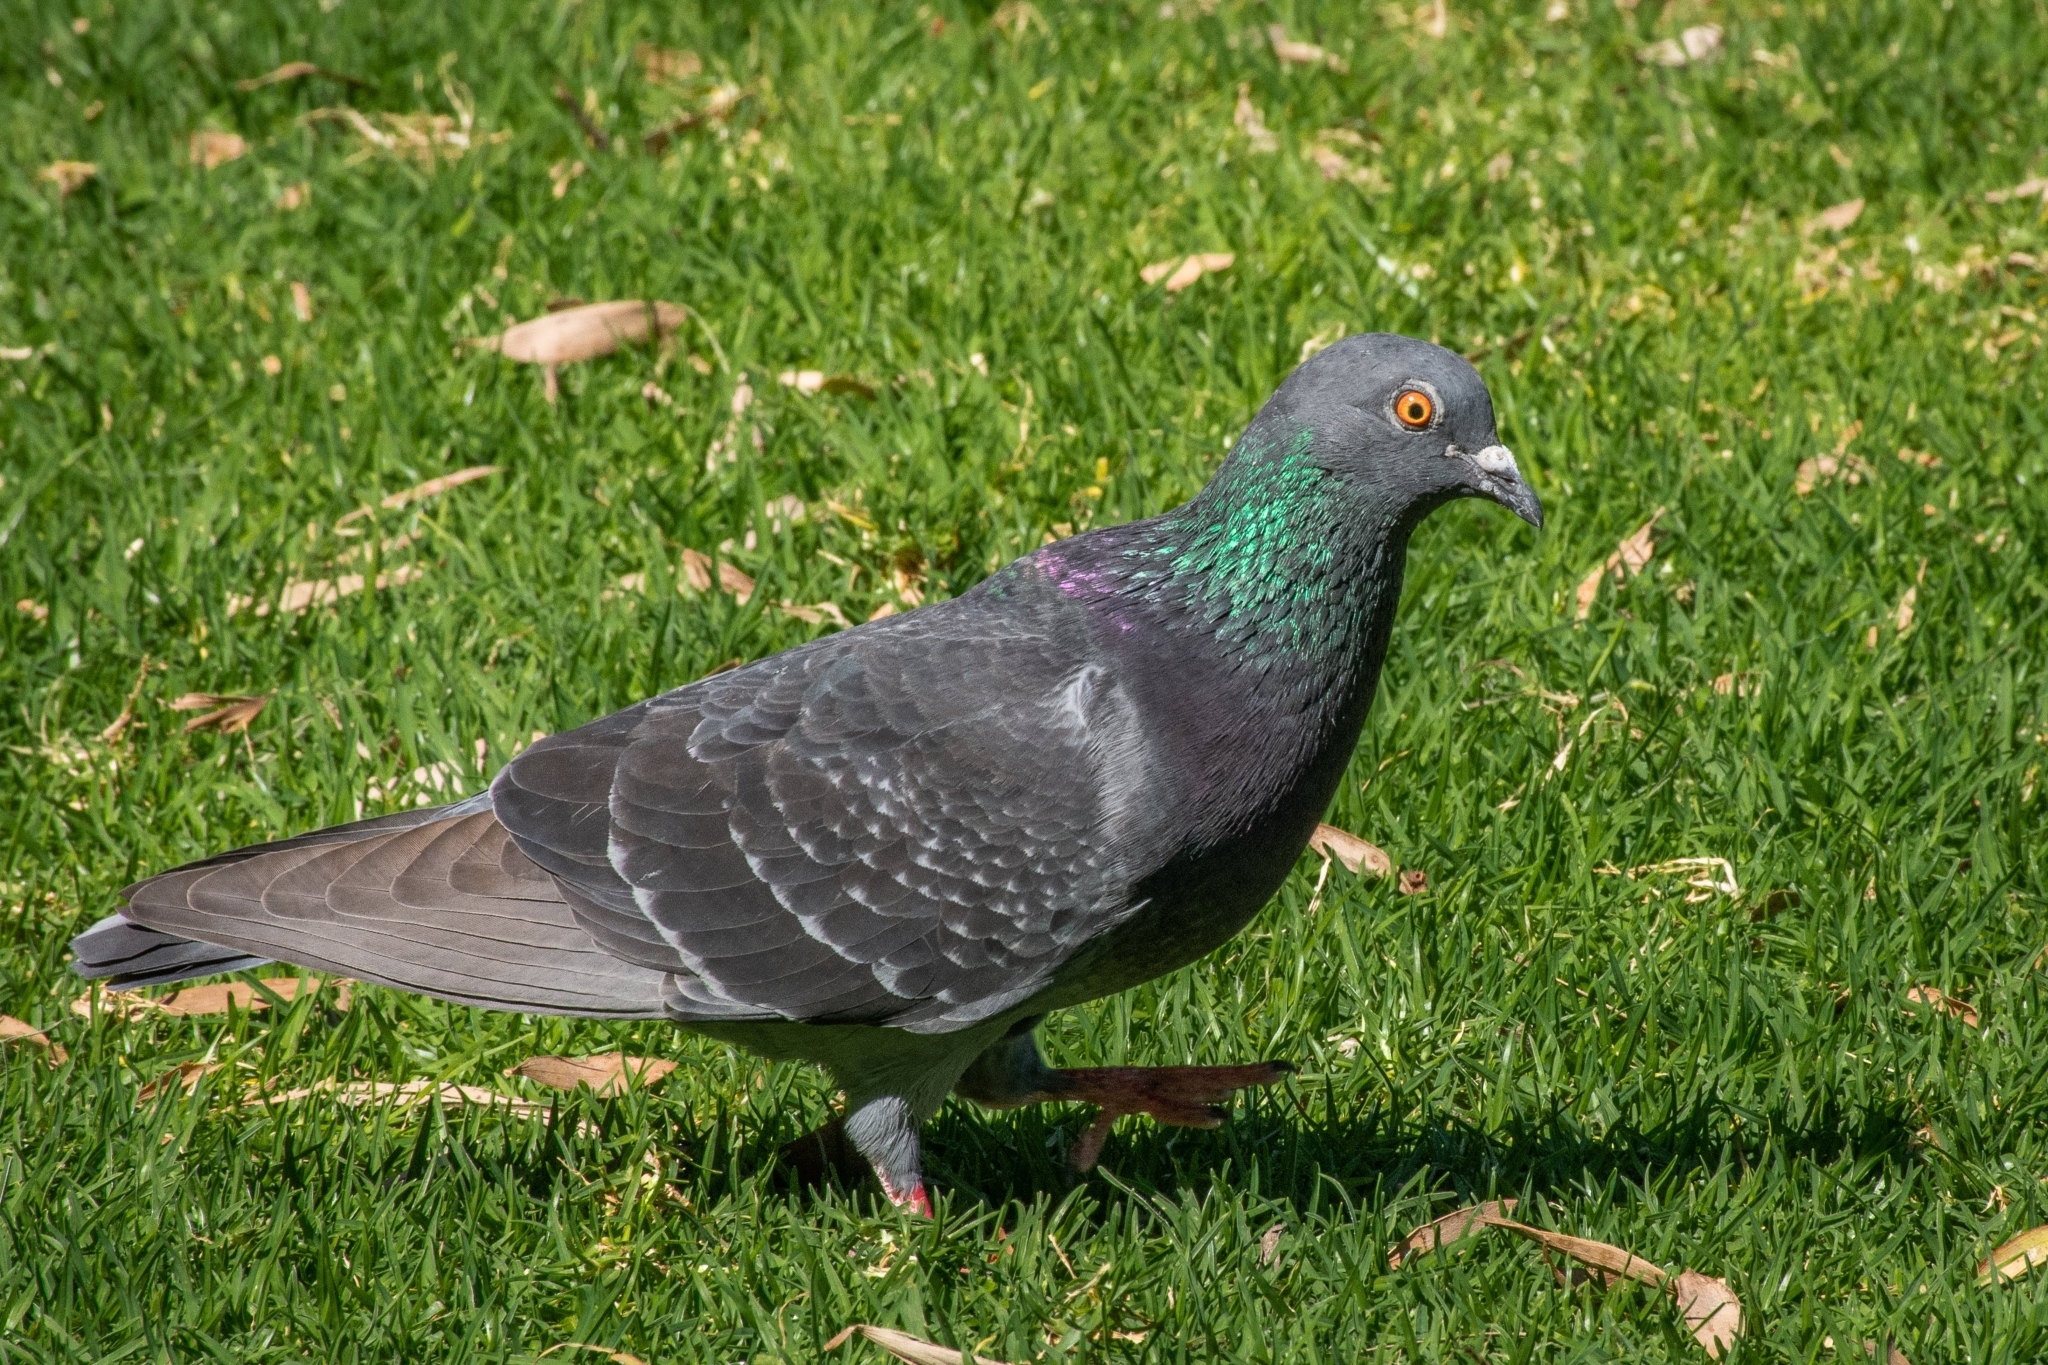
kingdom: Animalia
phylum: Chordata
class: Aves
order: Columbiformes
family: Columbidae
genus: Columba
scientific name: Columba livia
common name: Rock pigeon
